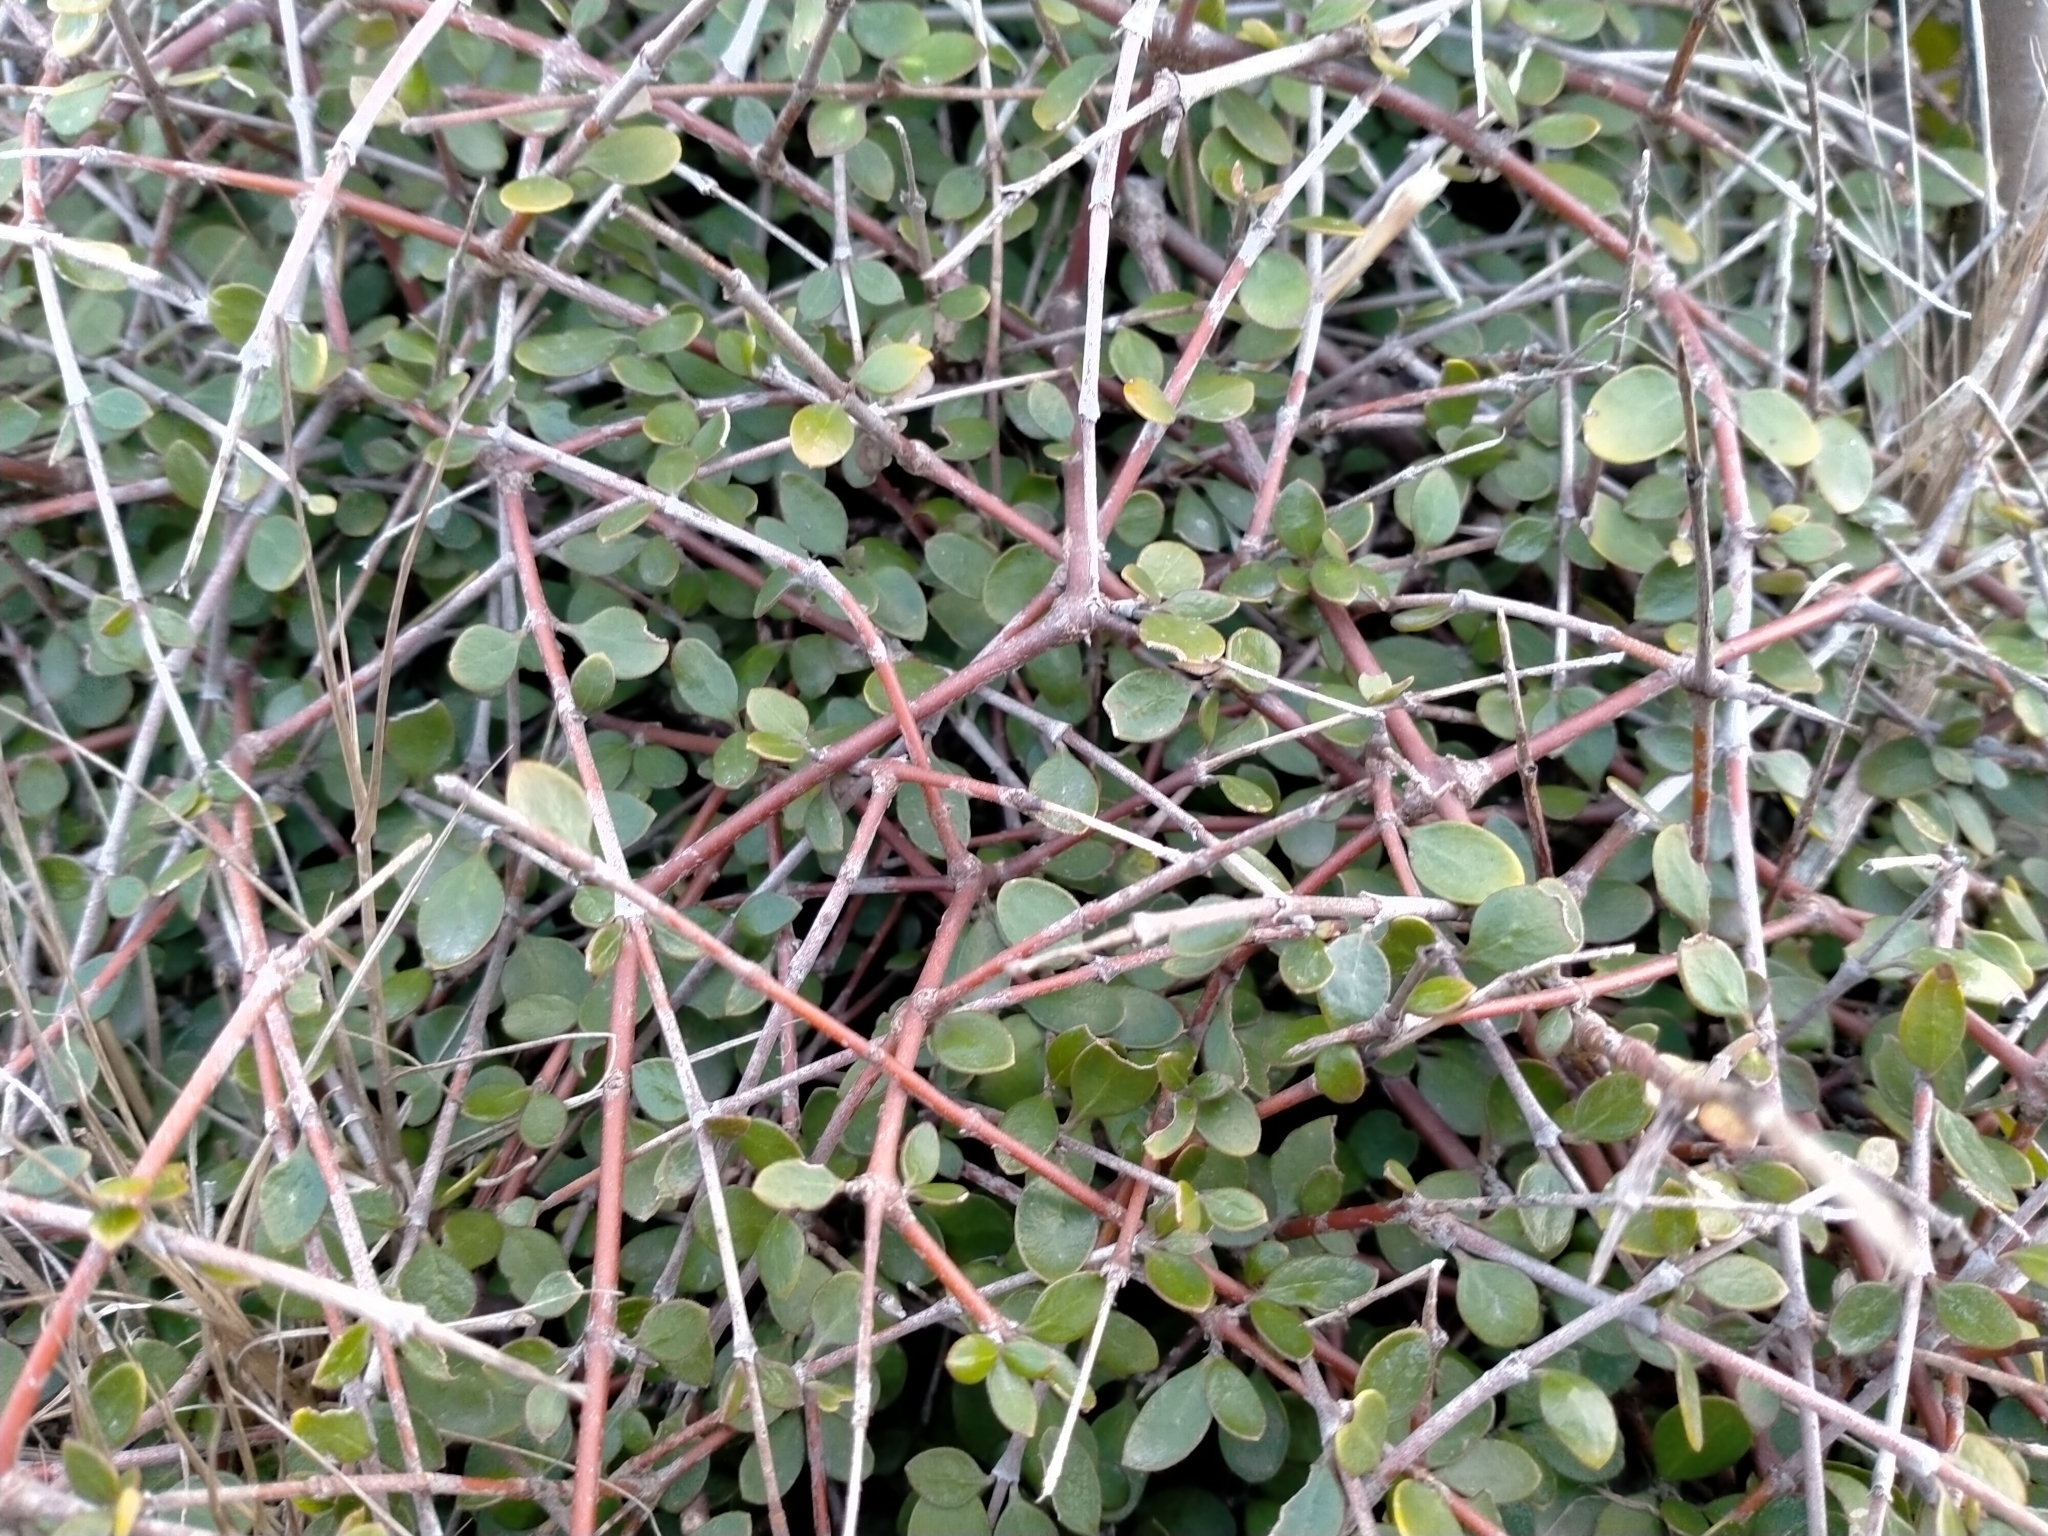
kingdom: Plantae
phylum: Tracheophyta
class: Magnoliopsida
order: Gentianales
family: Rubiaceae
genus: Coprosma
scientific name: Coprosma crassifolia
